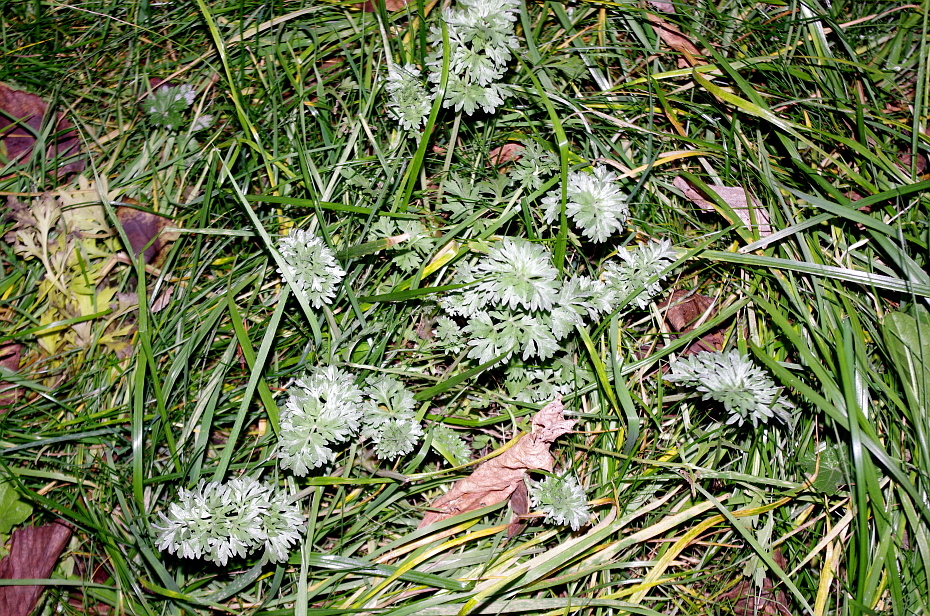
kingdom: Plantae
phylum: Tracheophyta
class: Magnoliopsida
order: Asterales
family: Asteraceae
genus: Artemisia
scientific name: Artemisia absinthium
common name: Wormwood
